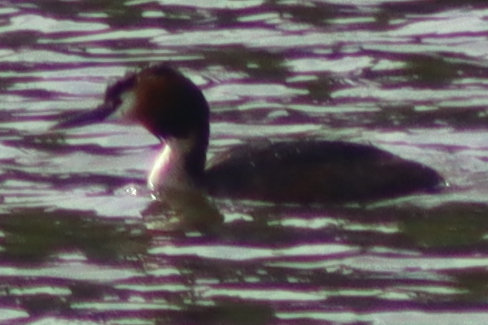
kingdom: Animalia
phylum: Chordata
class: Aves
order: Podicipediformes
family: Podicipedidae
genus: Podiceps
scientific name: Podiceps cristatus
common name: Great crested grebe
